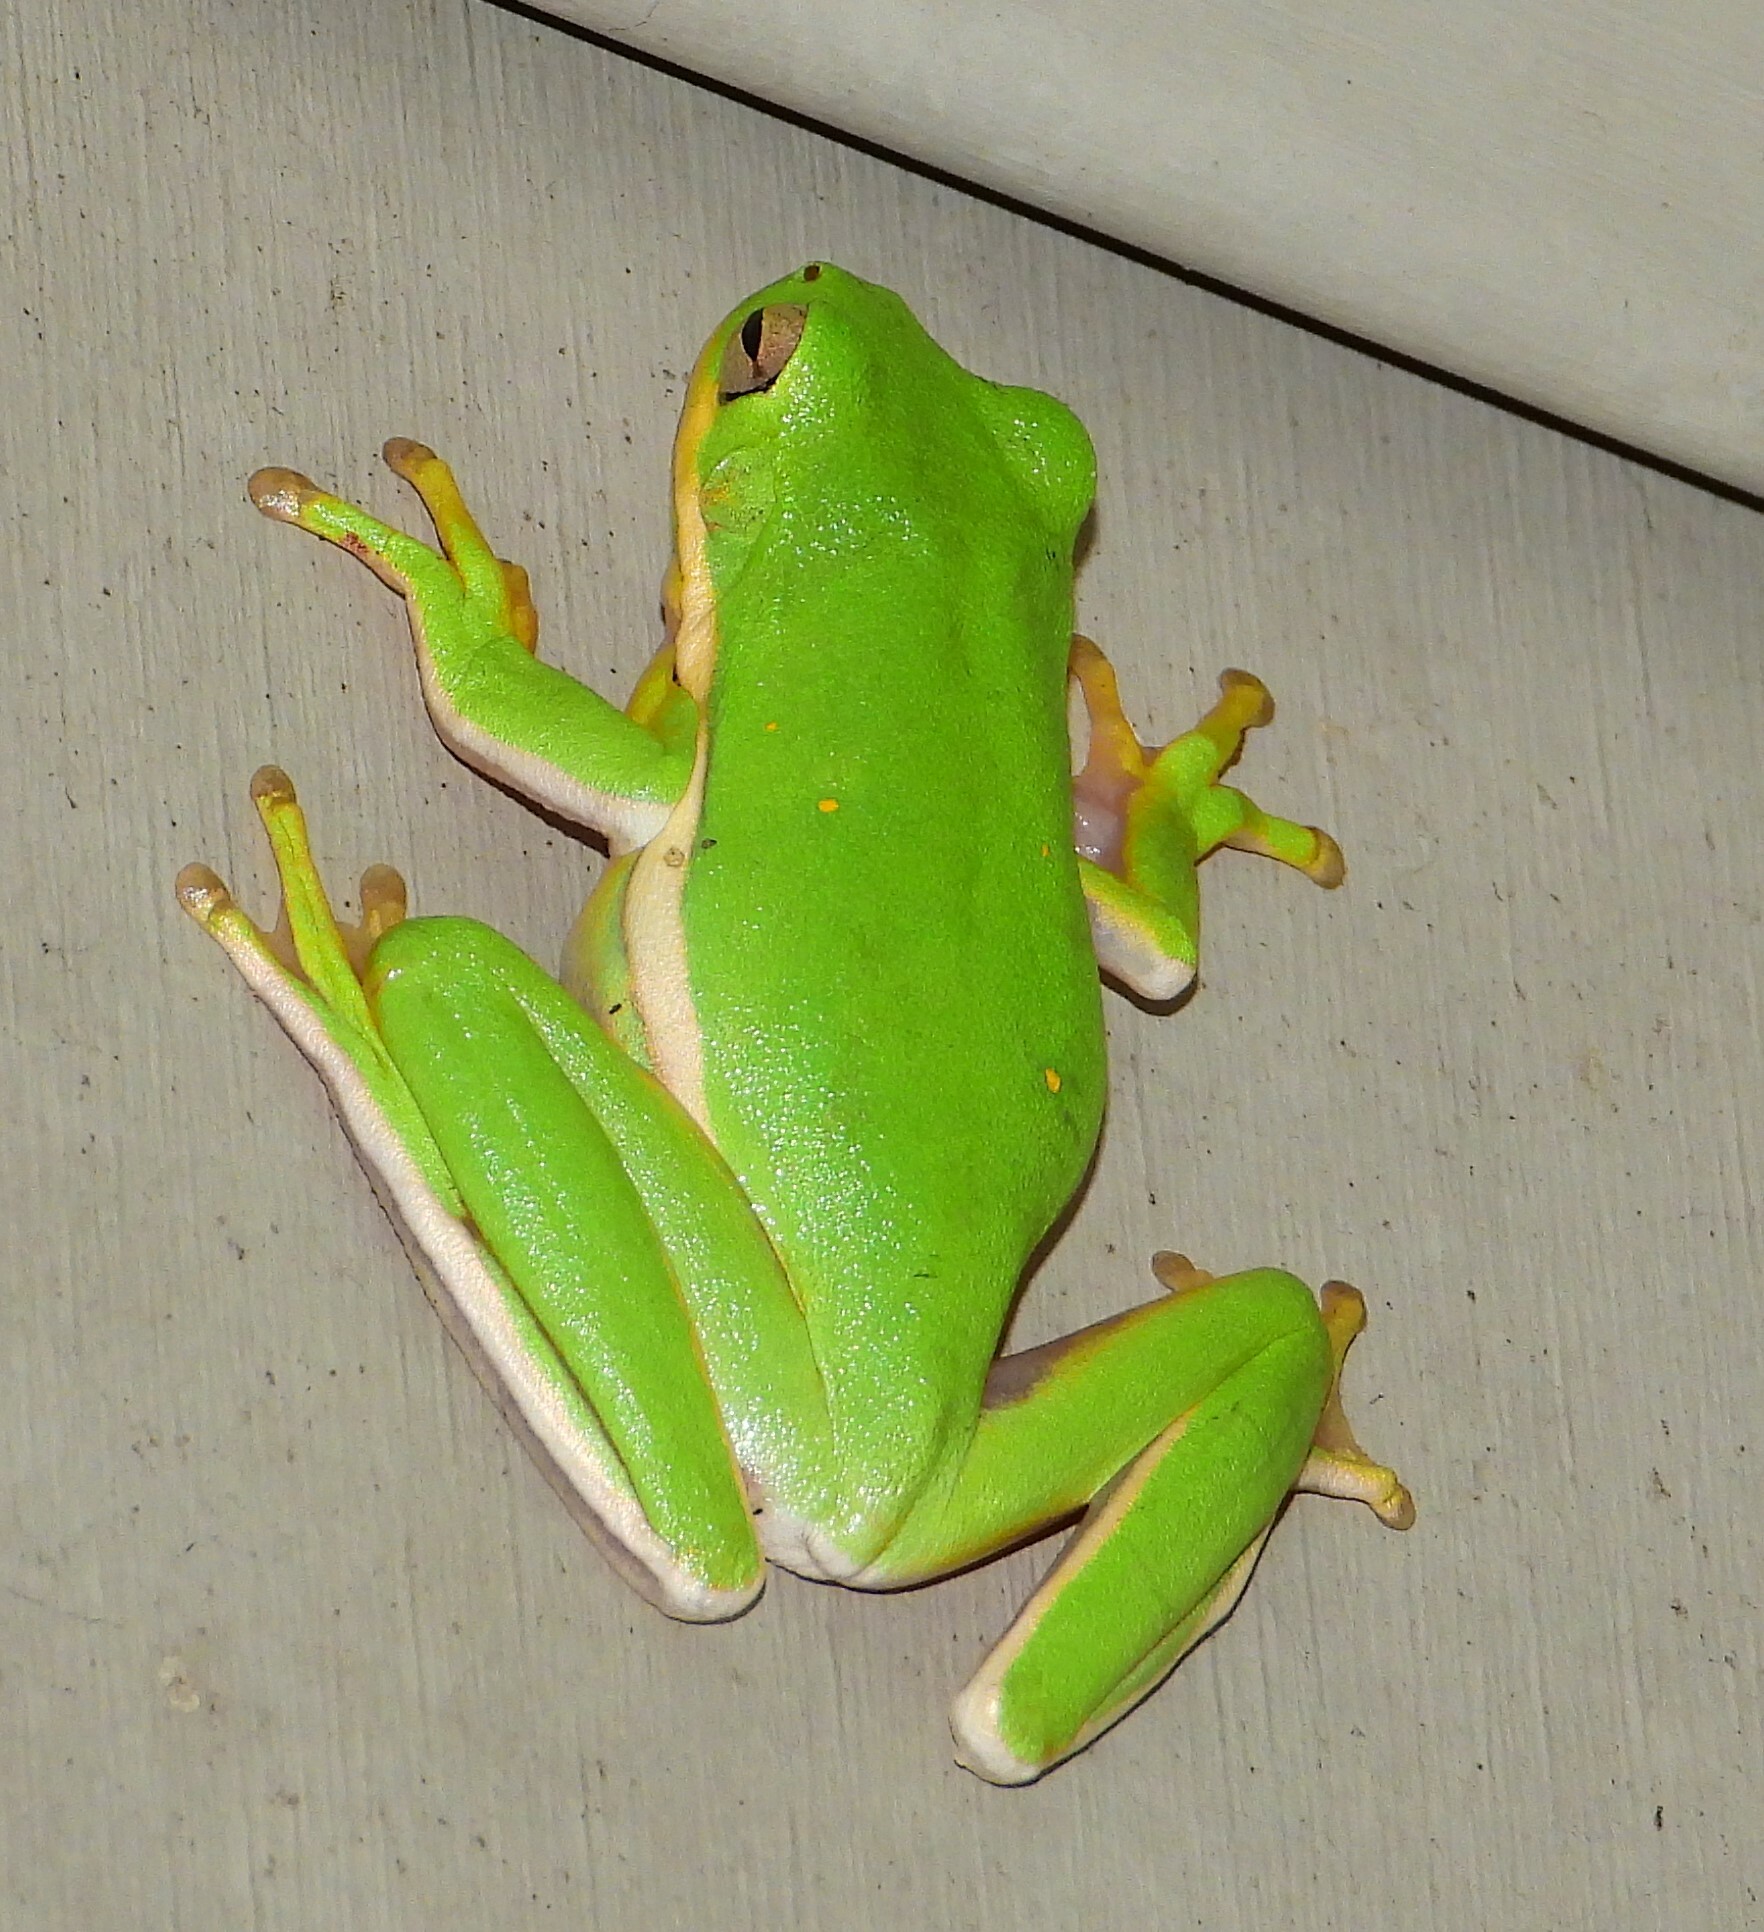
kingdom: Animalia
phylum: Chordata
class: Amphibia
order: Anura
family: Hylidae
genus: Dryophytes
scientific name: Dryophytes cinereus
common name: Green treefrog
